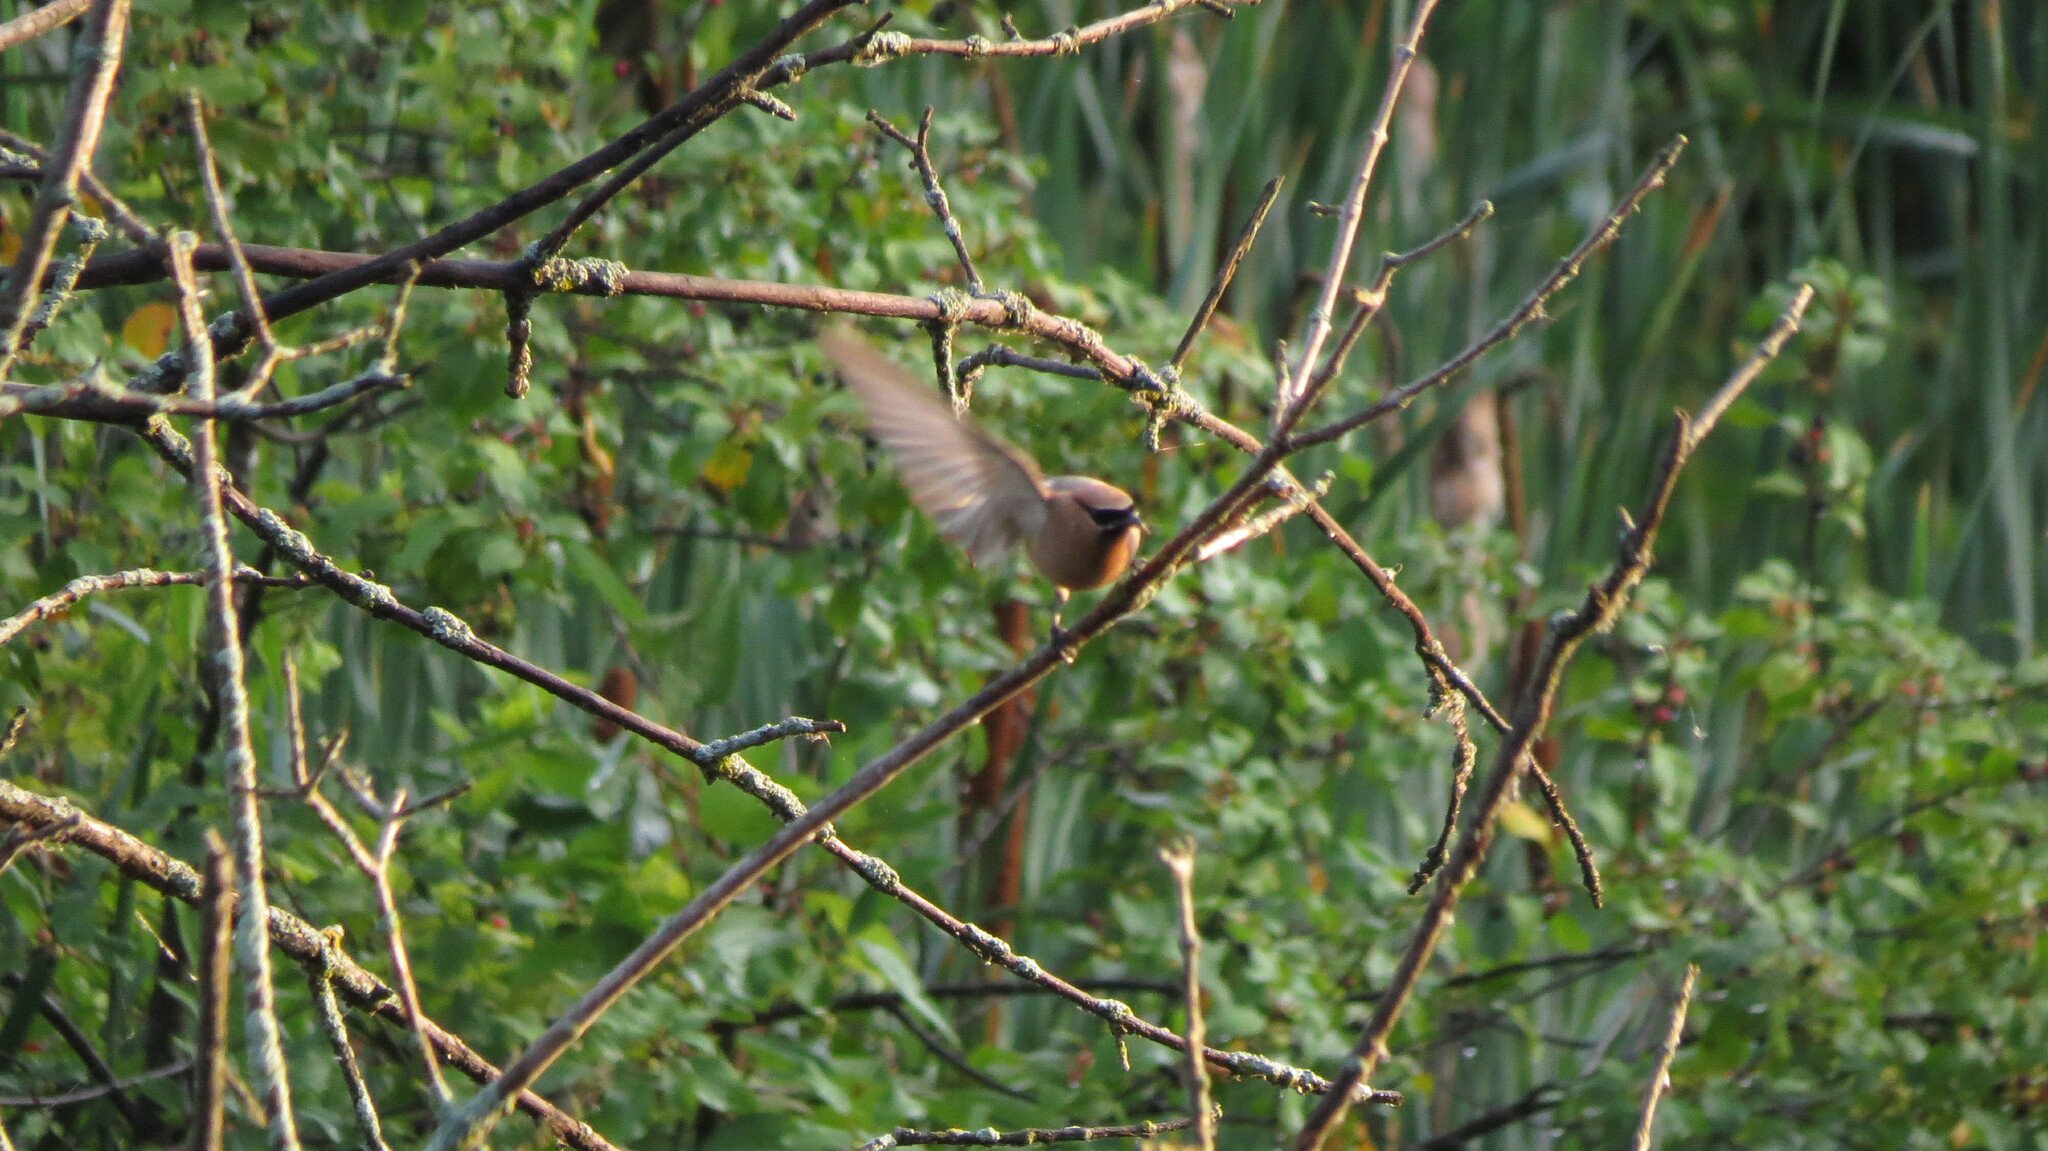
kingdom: Animalia
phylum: Chordata
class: Aves
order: Passeriformes
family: Bombycillidae
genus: Bombycilla
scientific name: Bombycilla cedrorum
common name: Cedar waxwing
